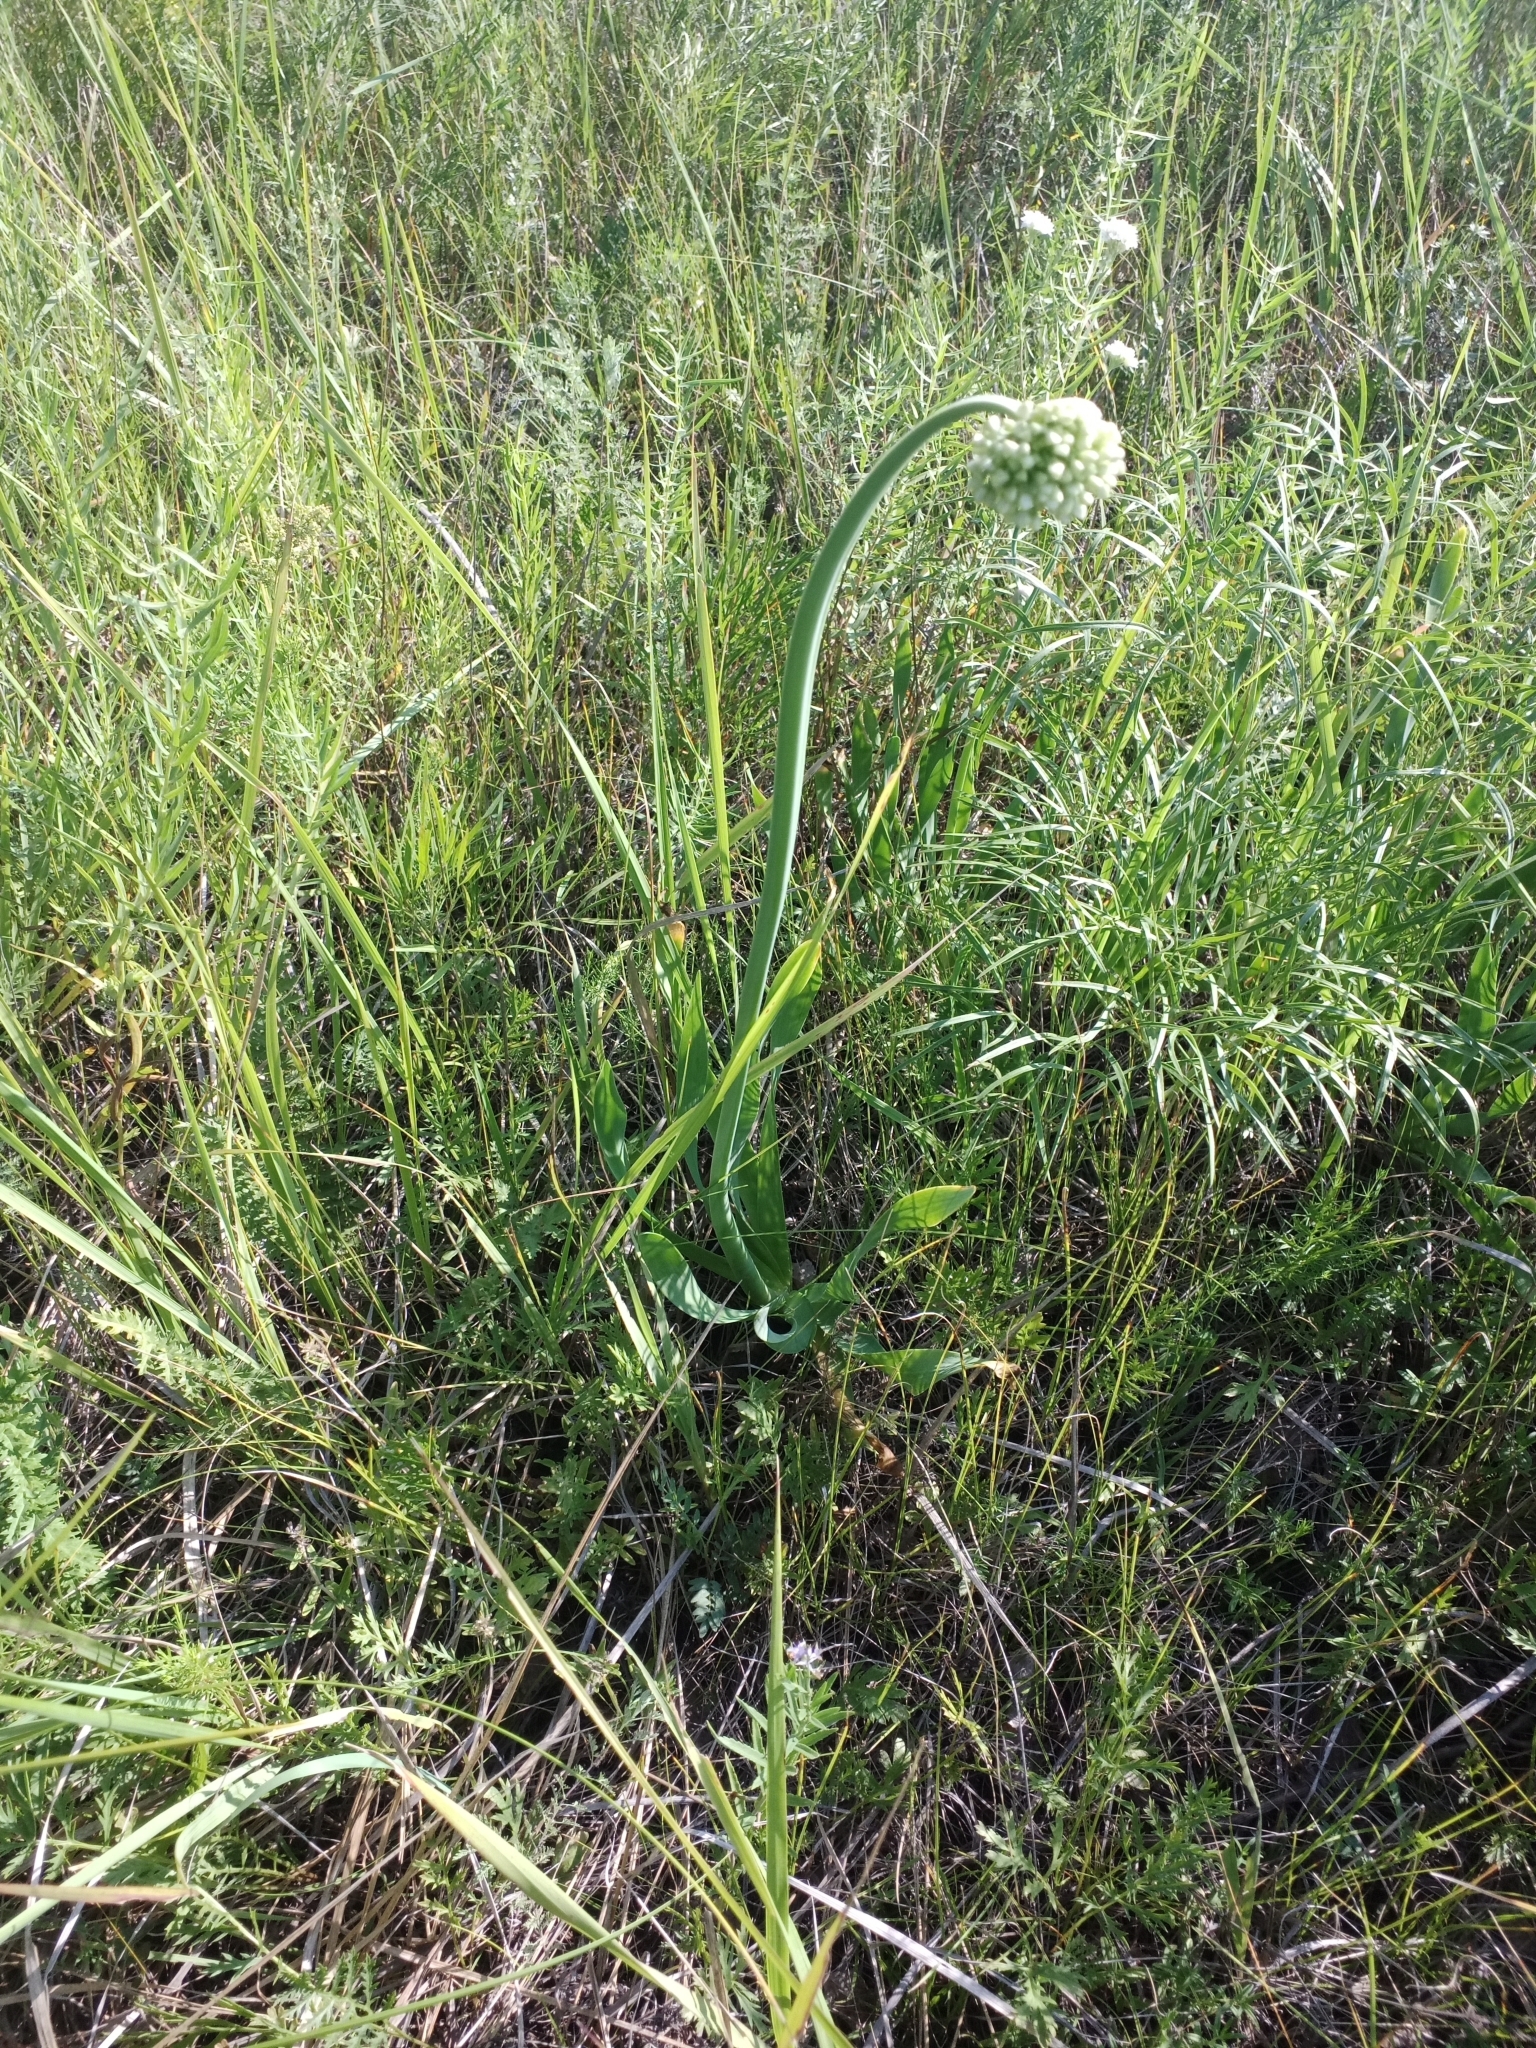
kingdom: Plantae
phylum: Tracheophyta
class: Liliopsida
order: Asparagales
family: Amaryllidaceae
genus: Allium
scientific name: Allium nutans
